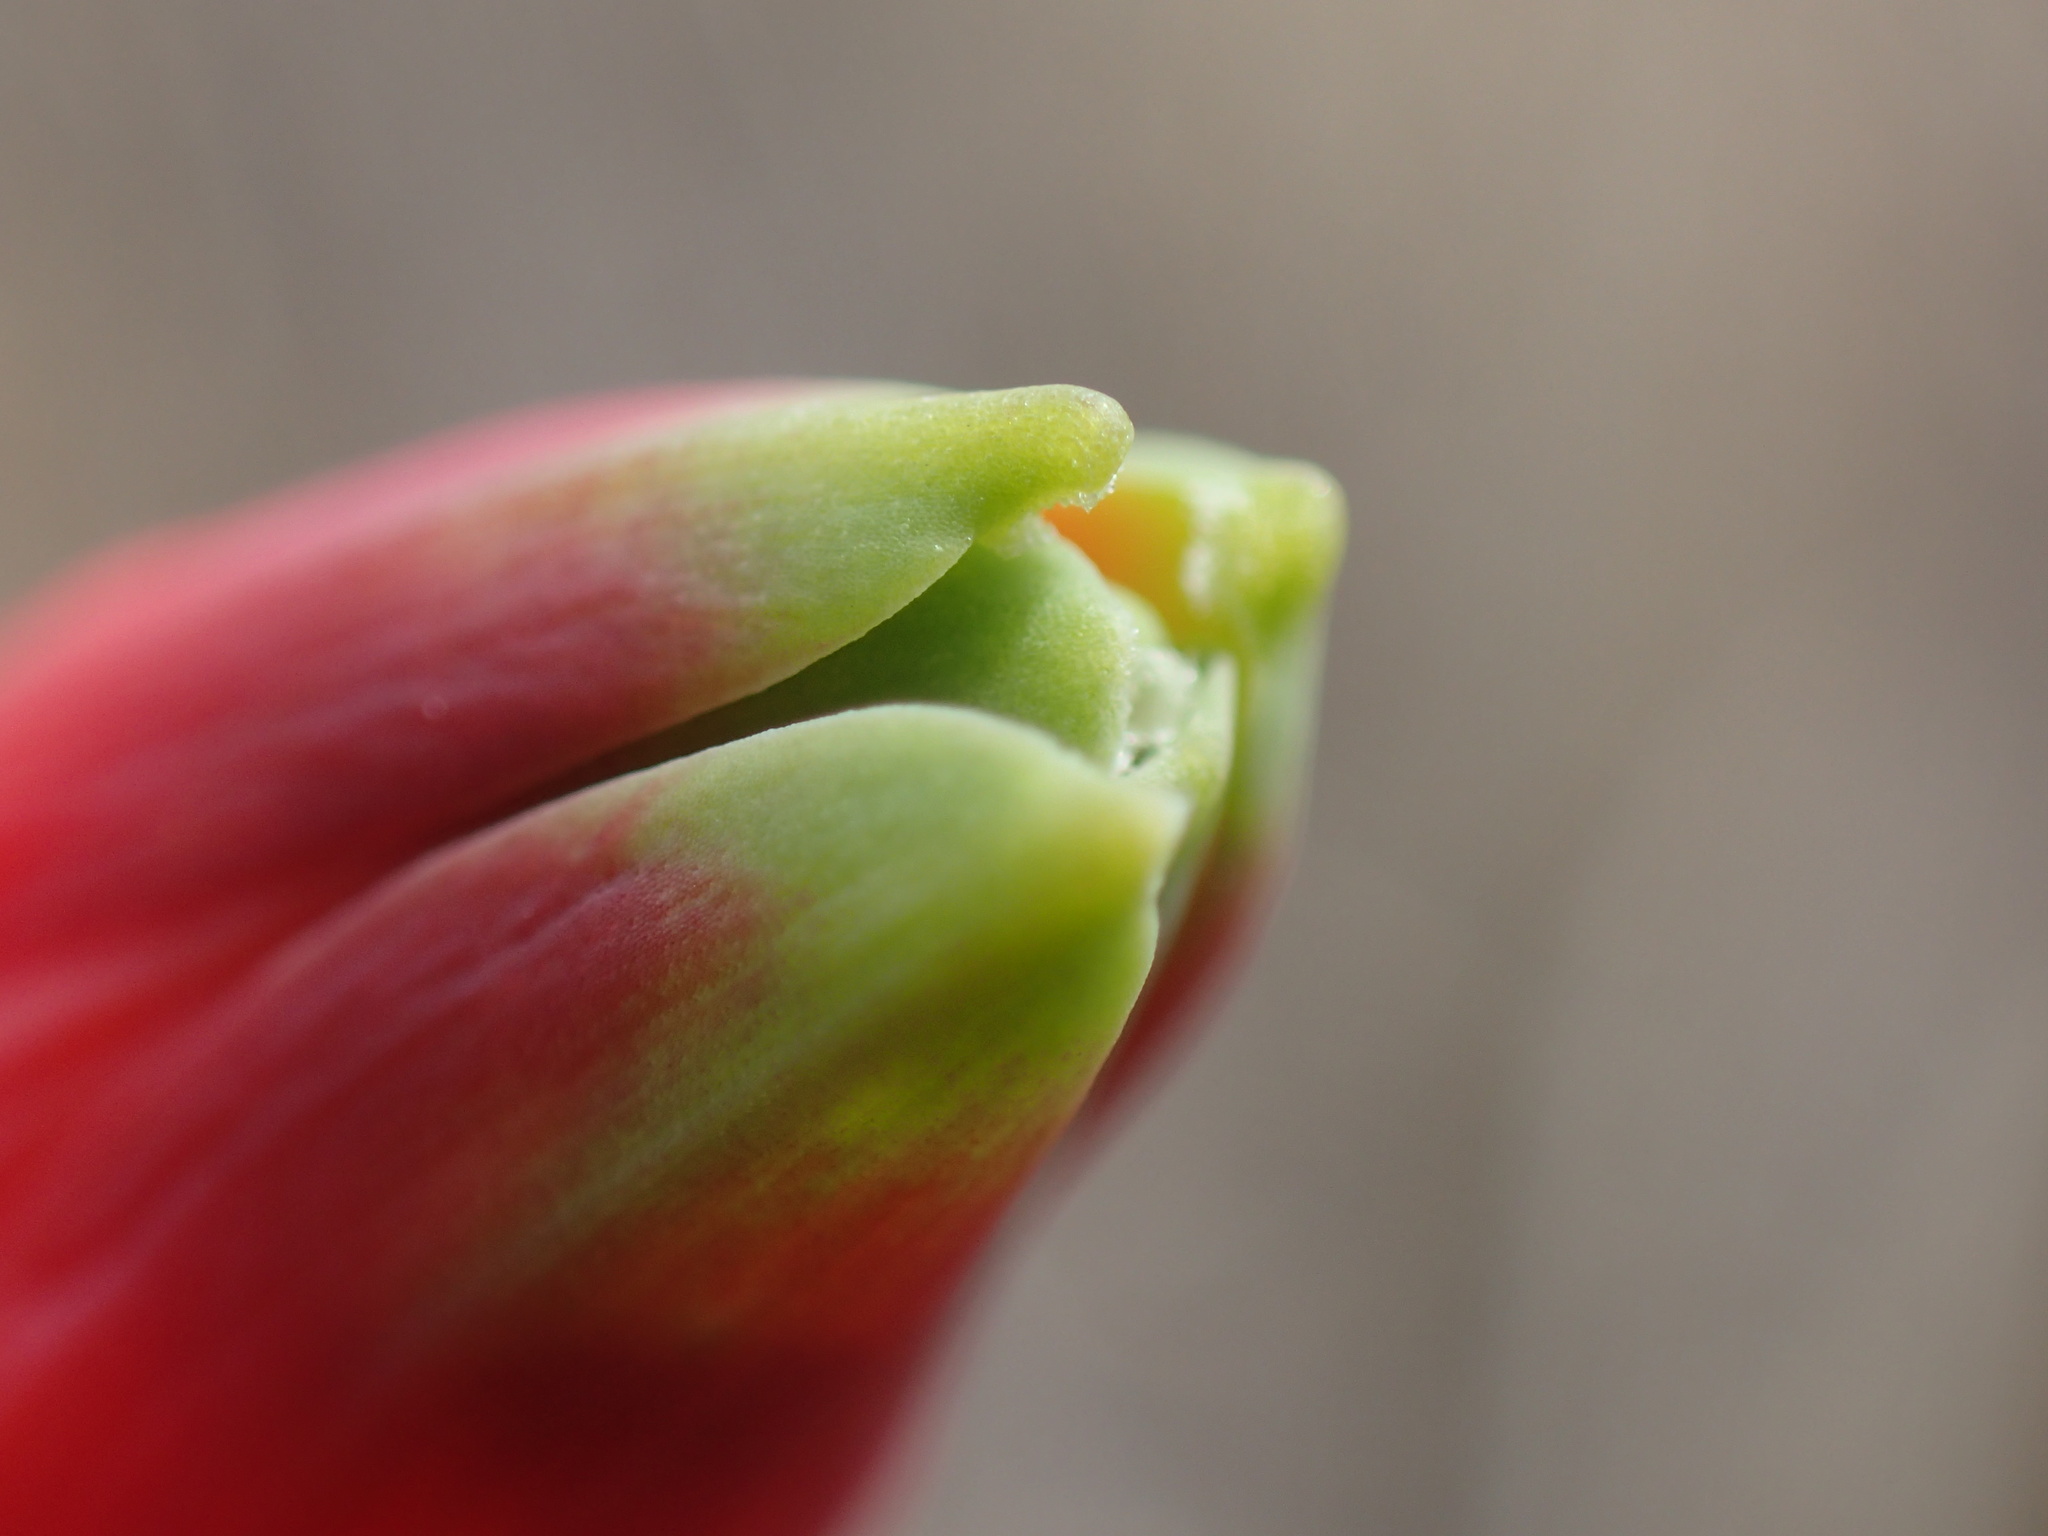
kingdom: Plantae
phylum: Tracheophyta
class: Liliopsida
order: Asparagales
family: Amaryllidaceae
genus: Cyrtanthus
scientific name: Cyrtanthus tuckii
